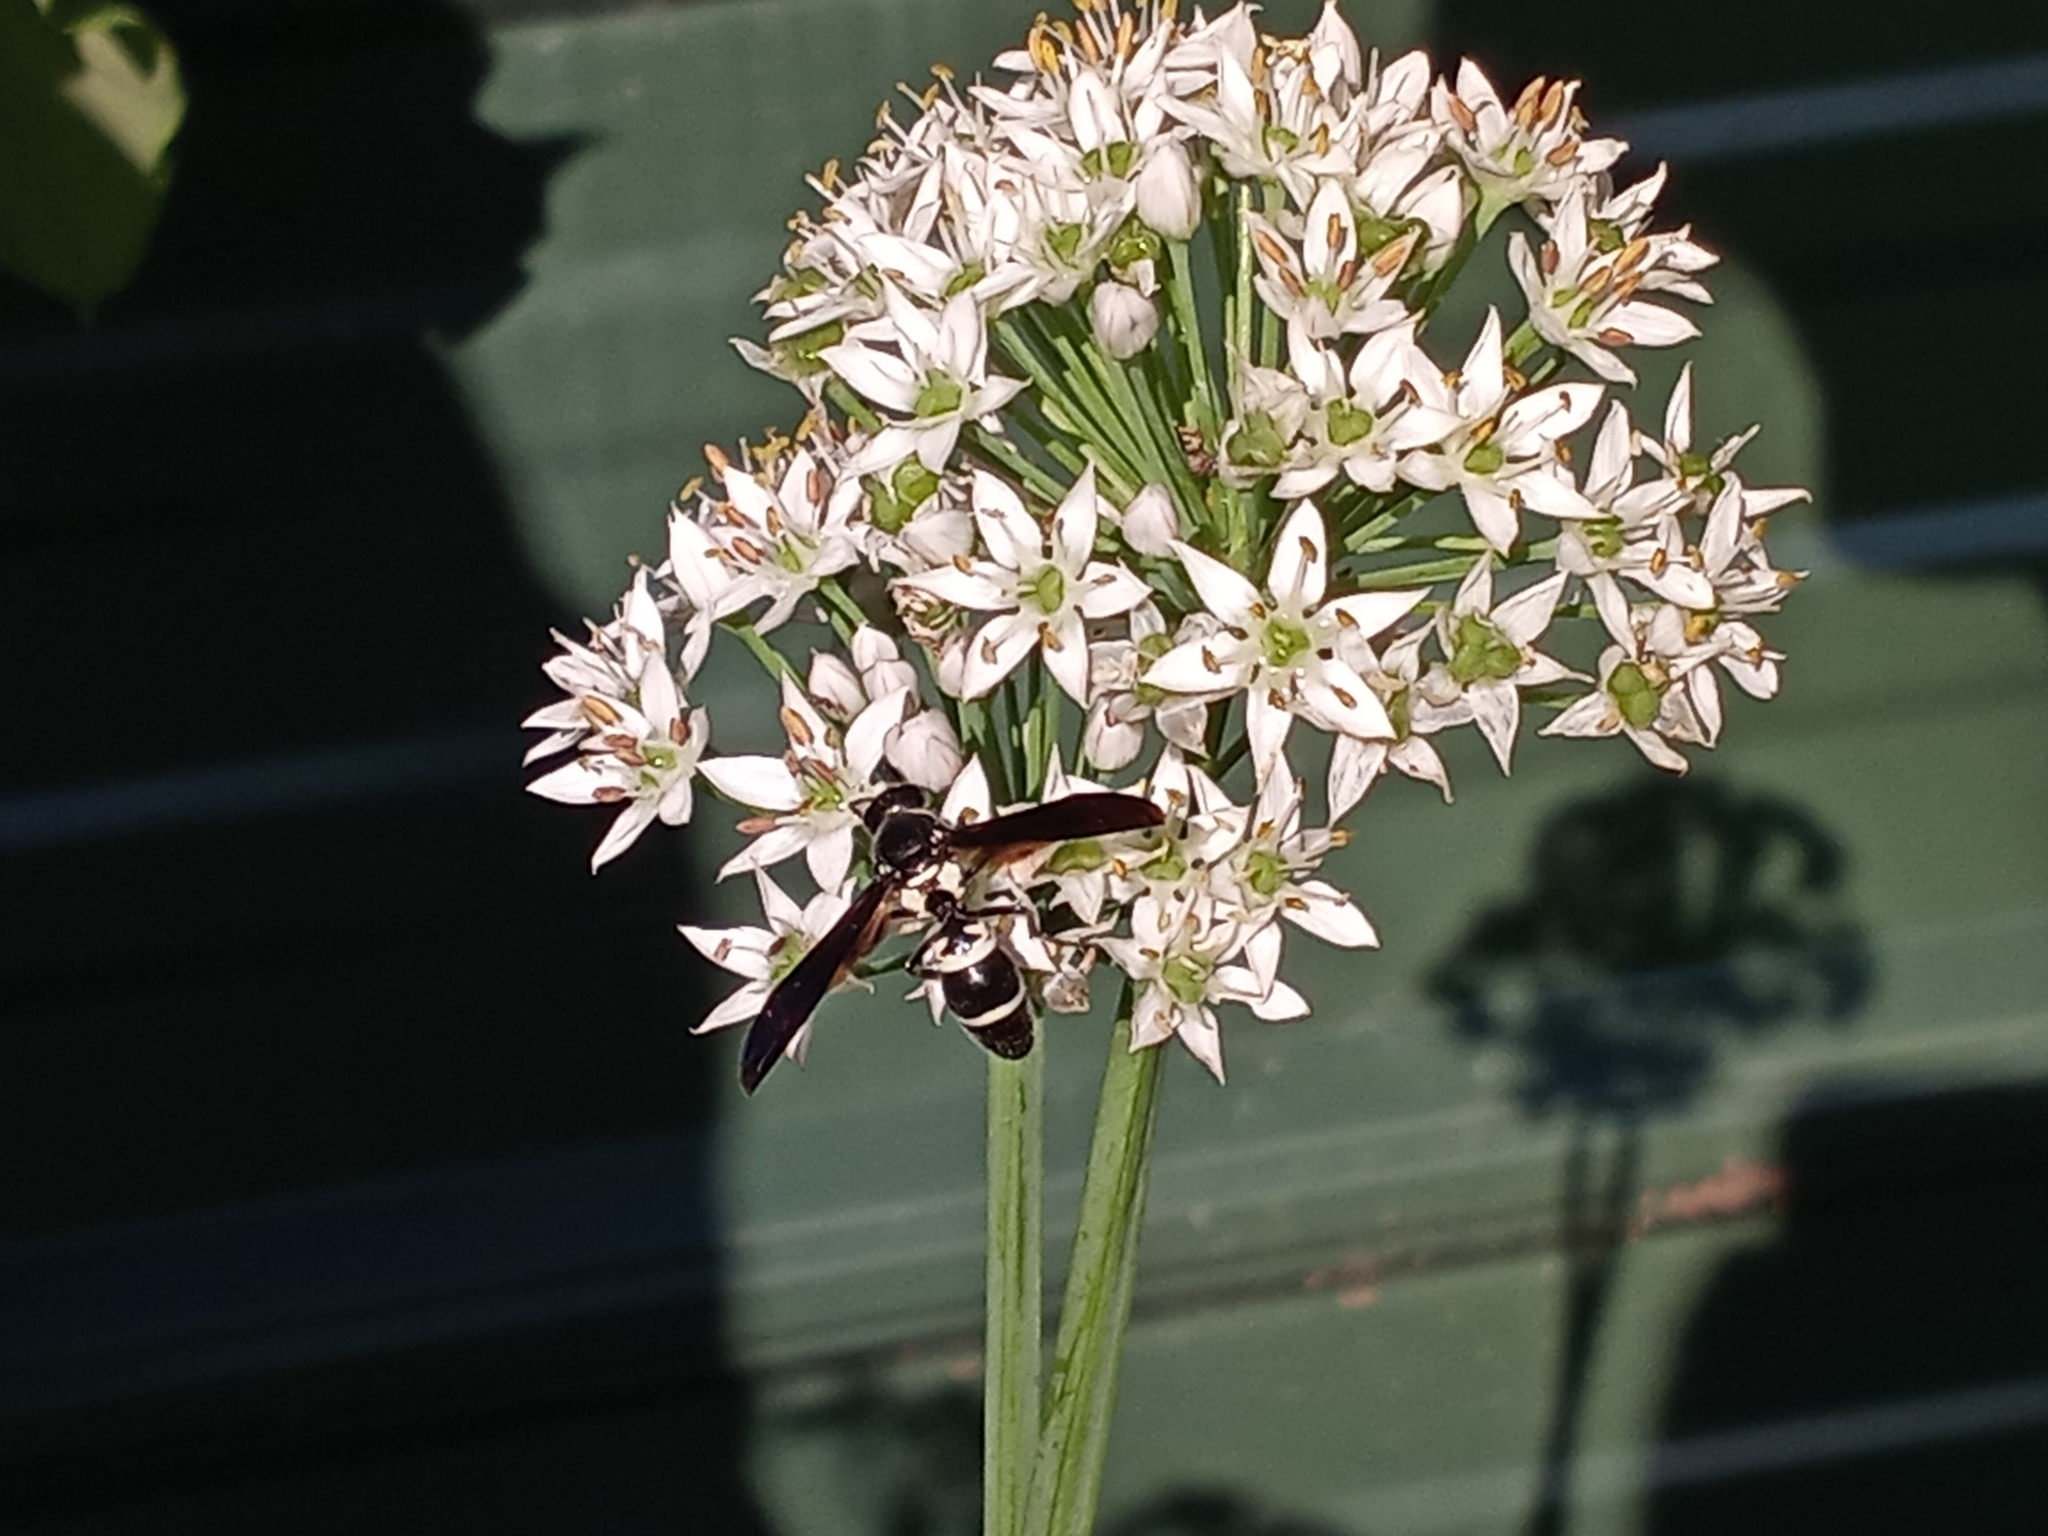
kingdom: Animalia
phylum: Arthropoda
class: Insecta
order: Hymenoptera
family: Eumenidae
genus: Pseudodynerus
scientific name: Pseudodynerus quadrisectus
